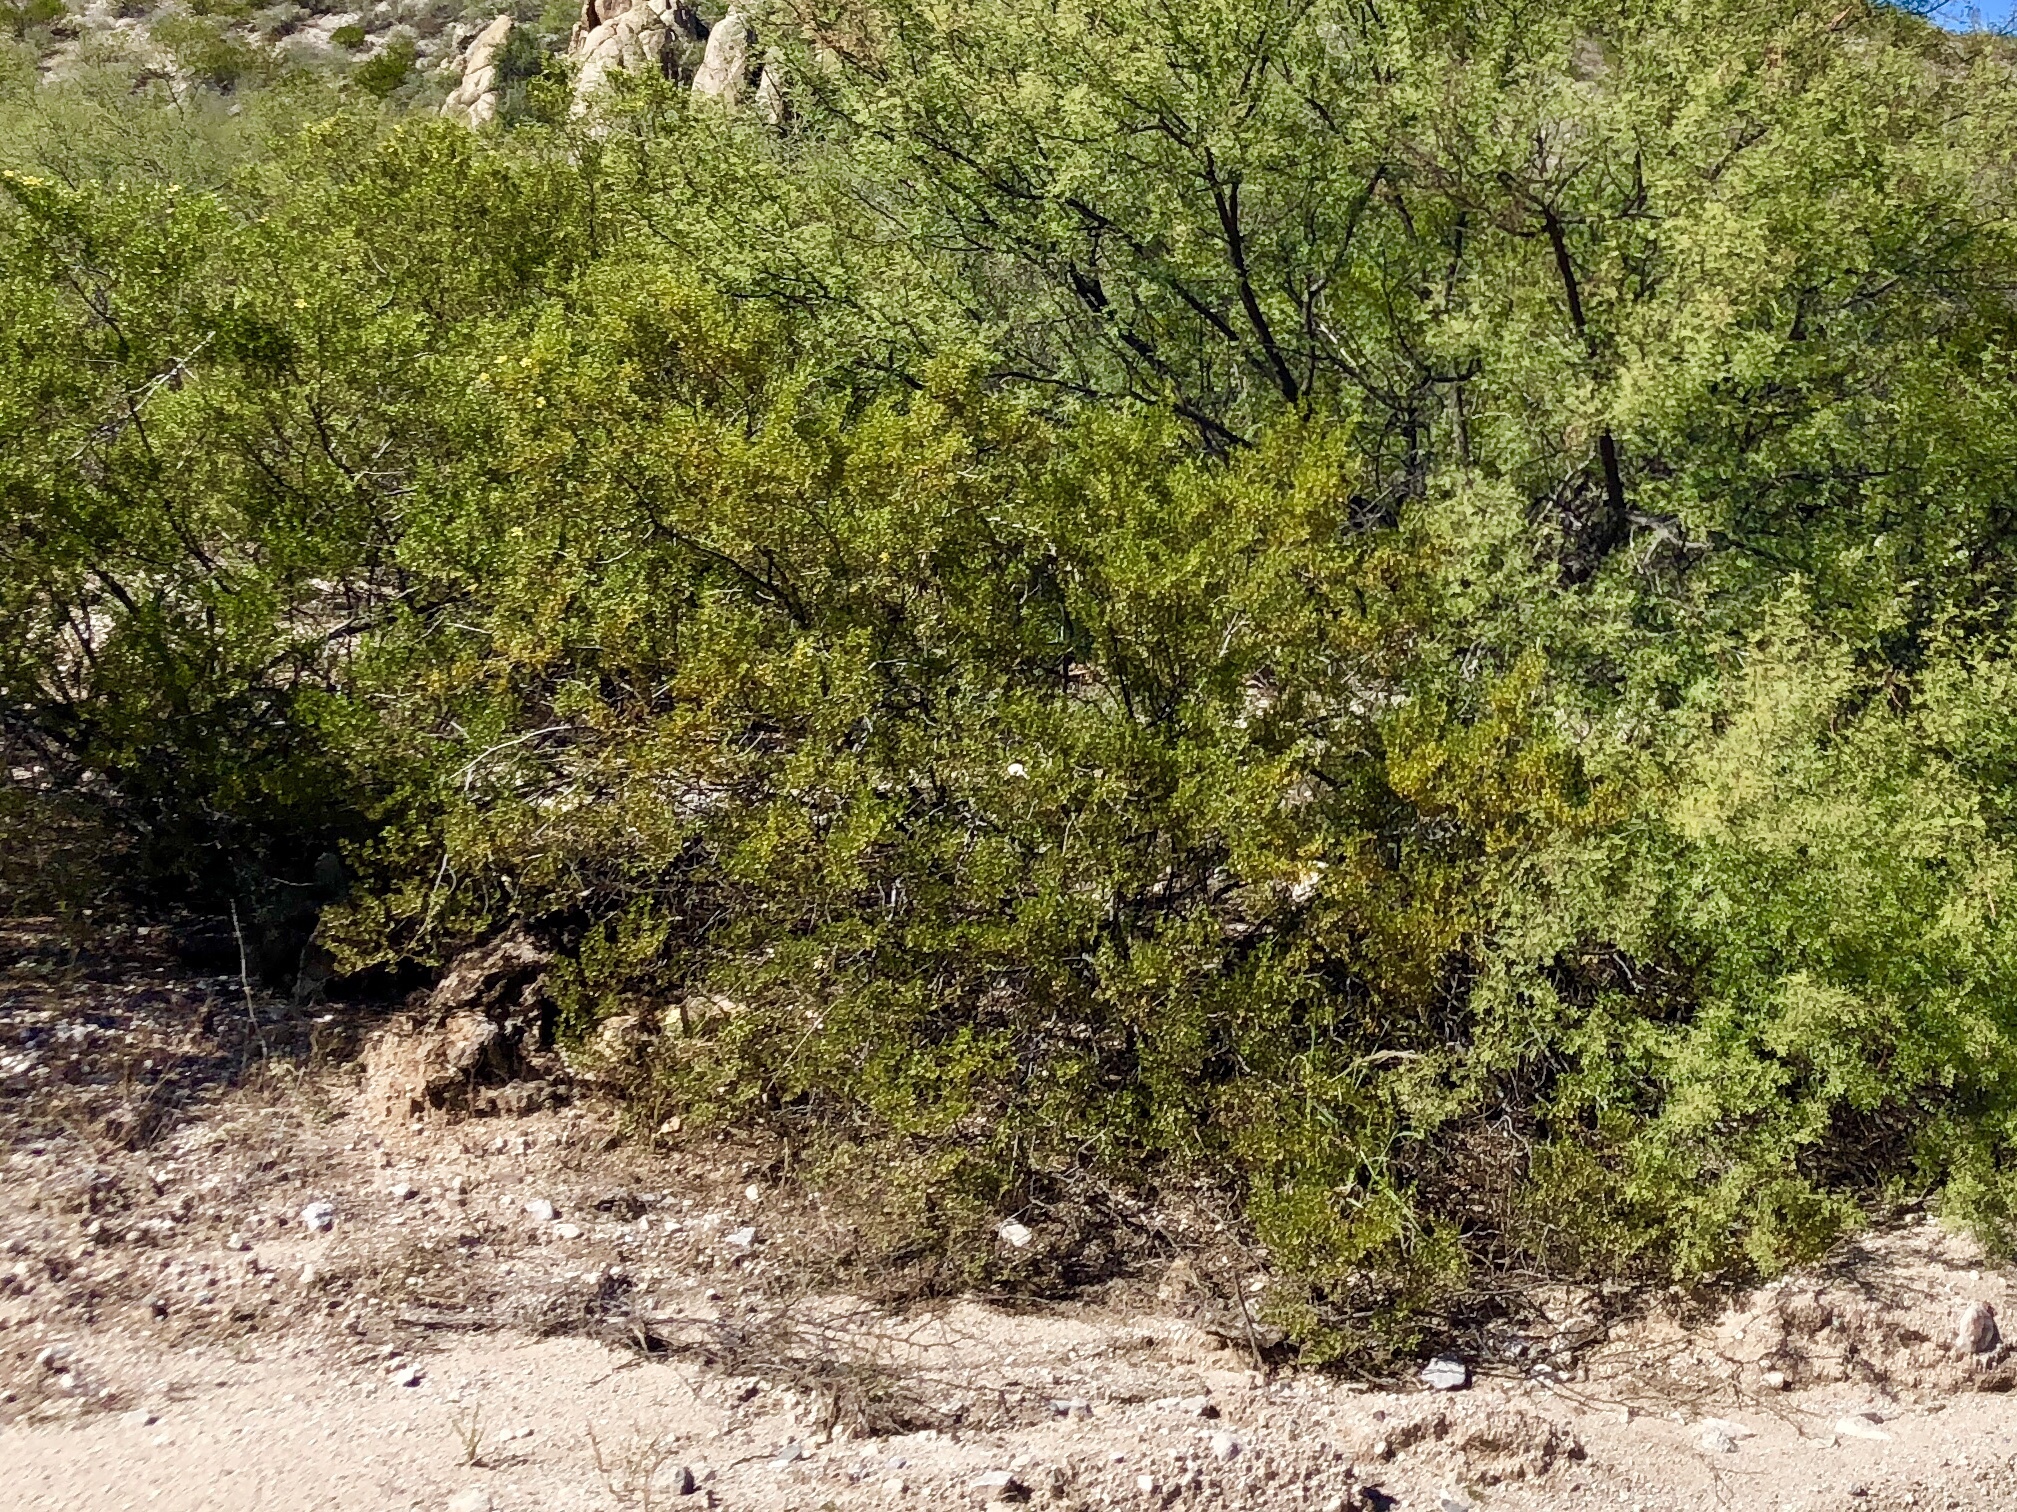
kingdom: Plantae
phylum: Tracheophyta
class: Magnoliopsida
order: Zygophyllales
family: Zygophyllaceae
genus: Larrea
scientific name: Larrea tridentata
